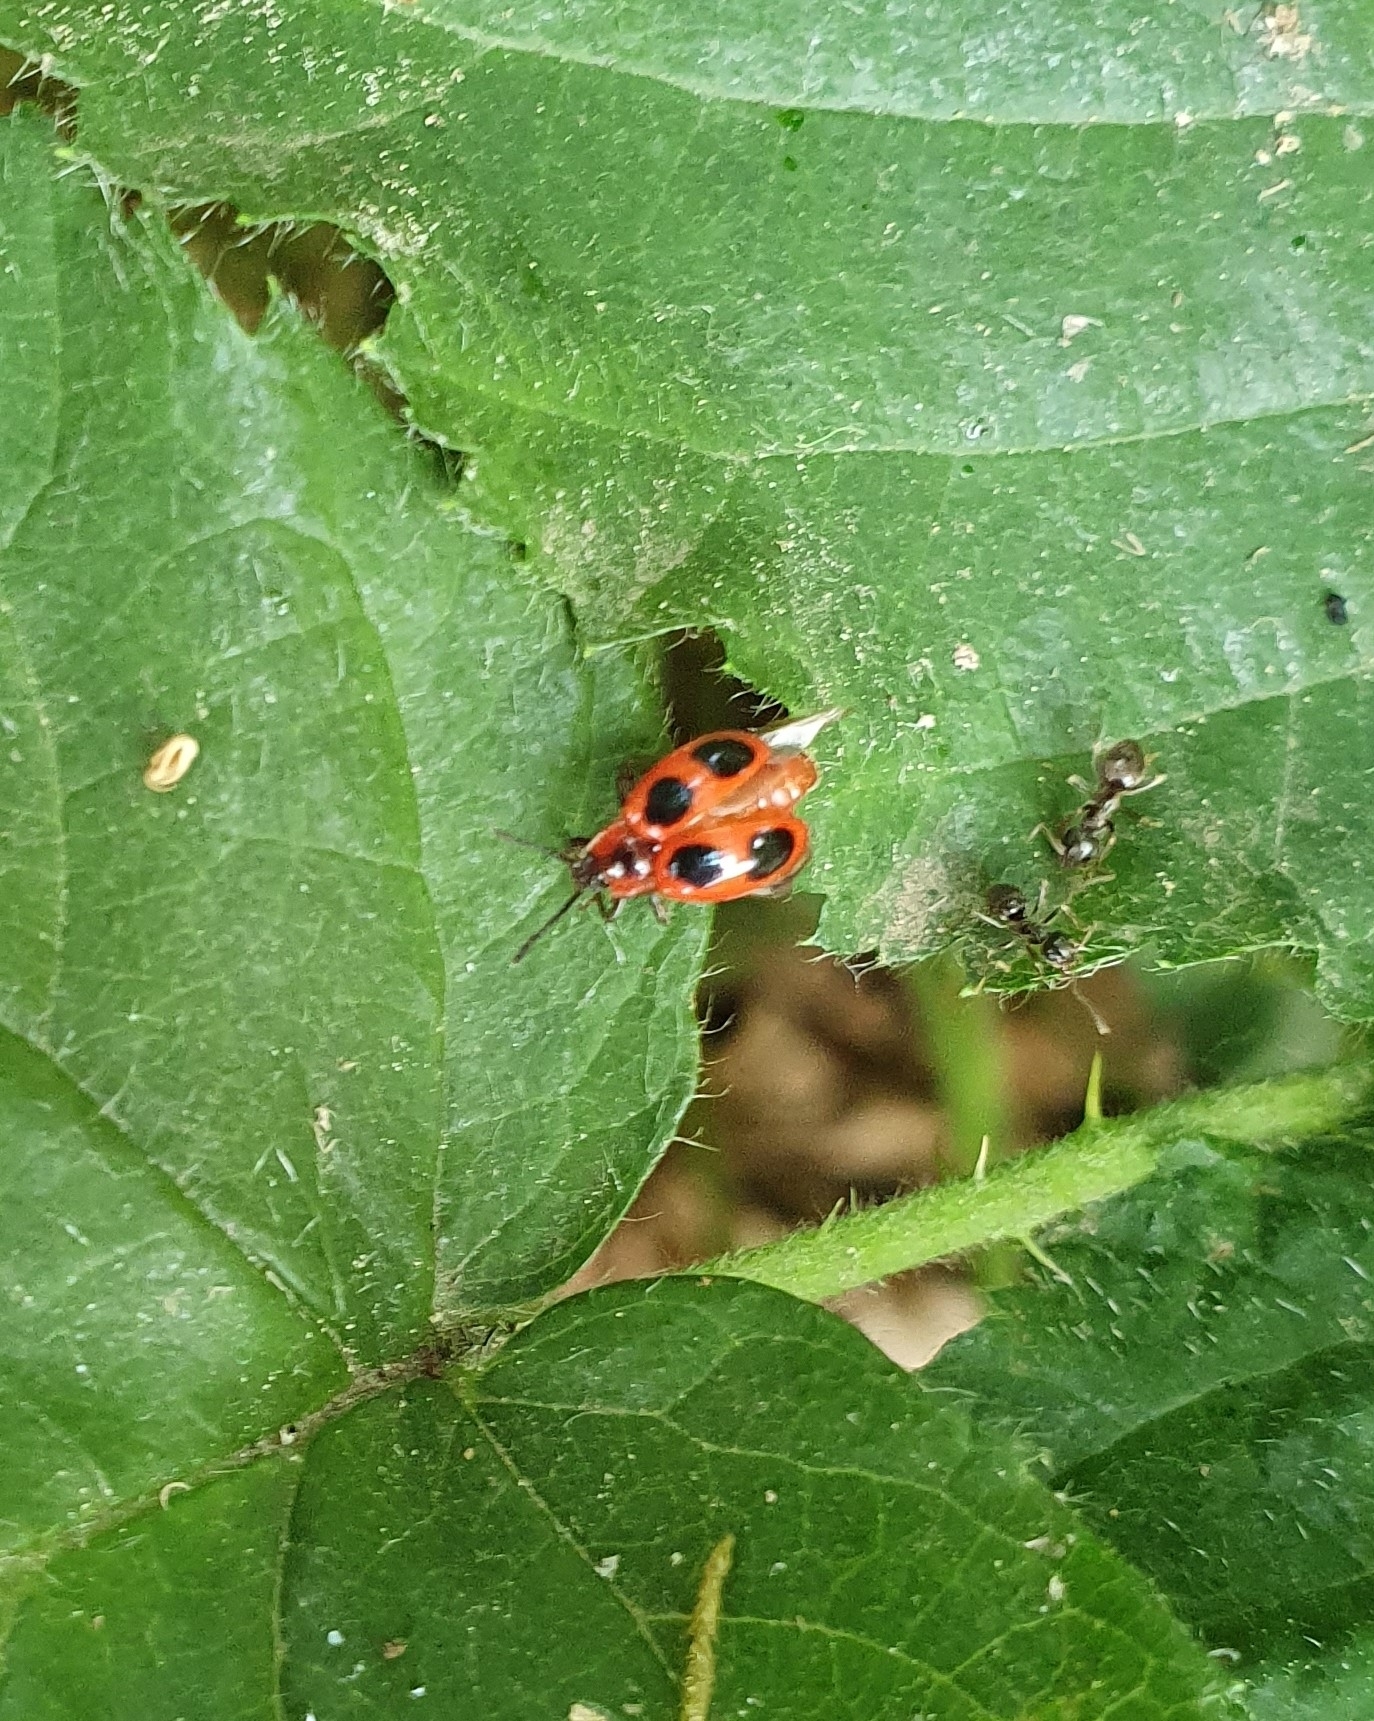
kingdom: Animalia
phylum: Arthropoda
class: Insecta
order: Coleoptera
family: Endomychidae
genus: Endomychus
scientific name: Endomychus coccineus
